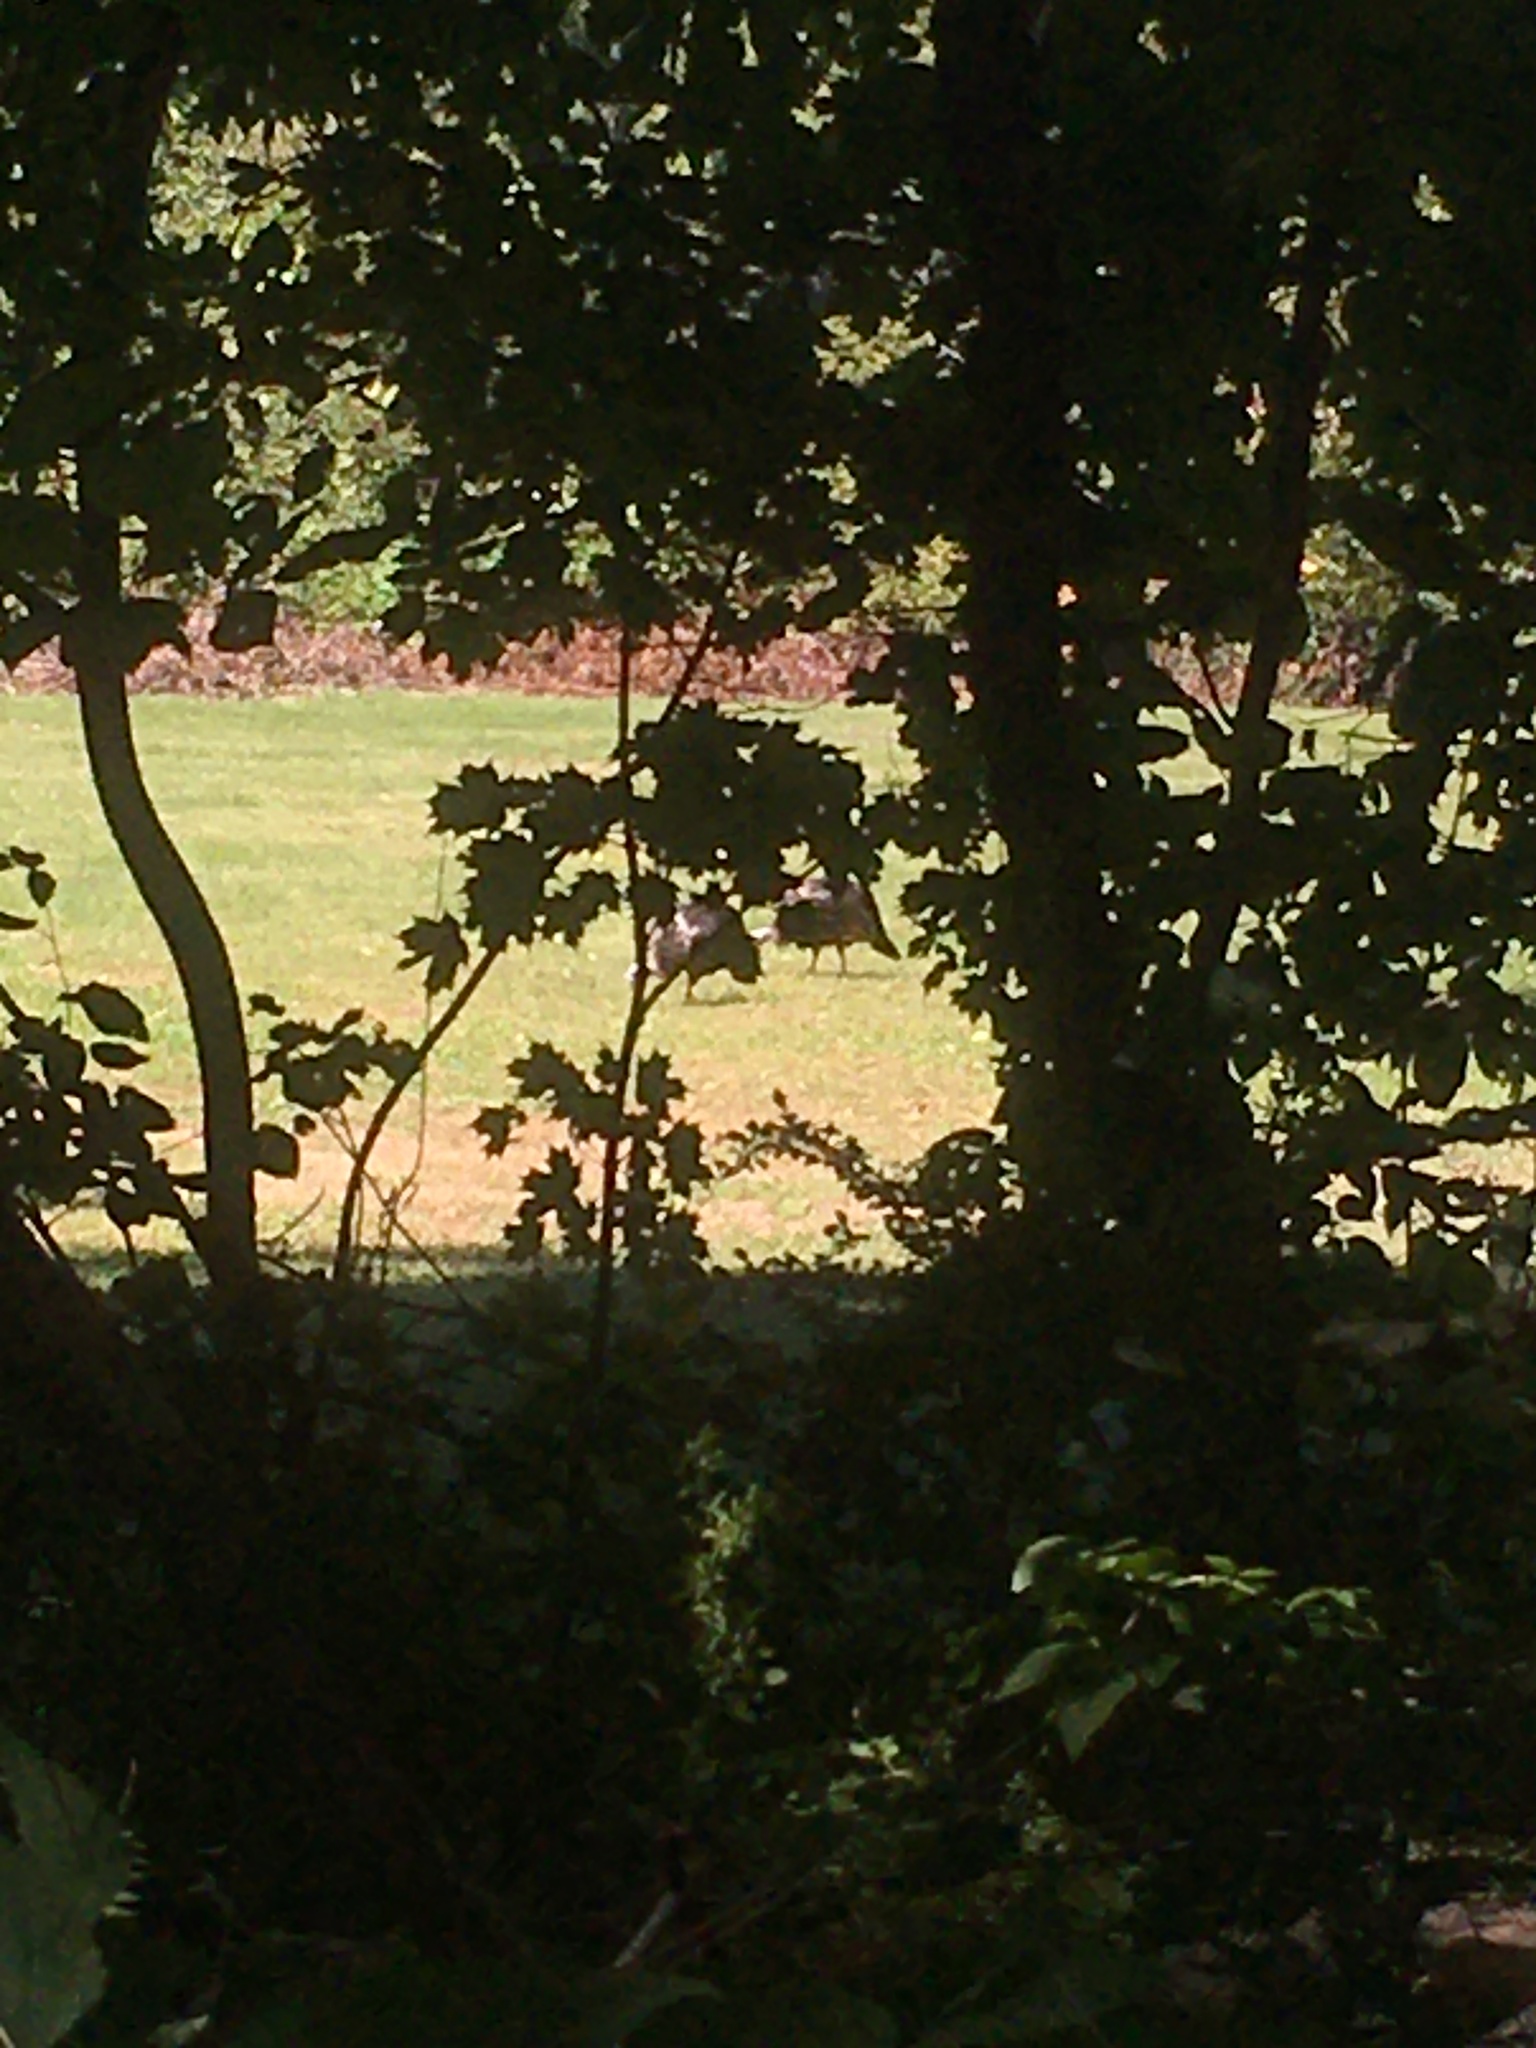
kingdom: Animalia
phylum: Chordata
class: Aves
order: Galliformes
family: Phasianidae
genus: Meleagris
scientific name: Meleagris gallopavo
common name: Wild turkey
